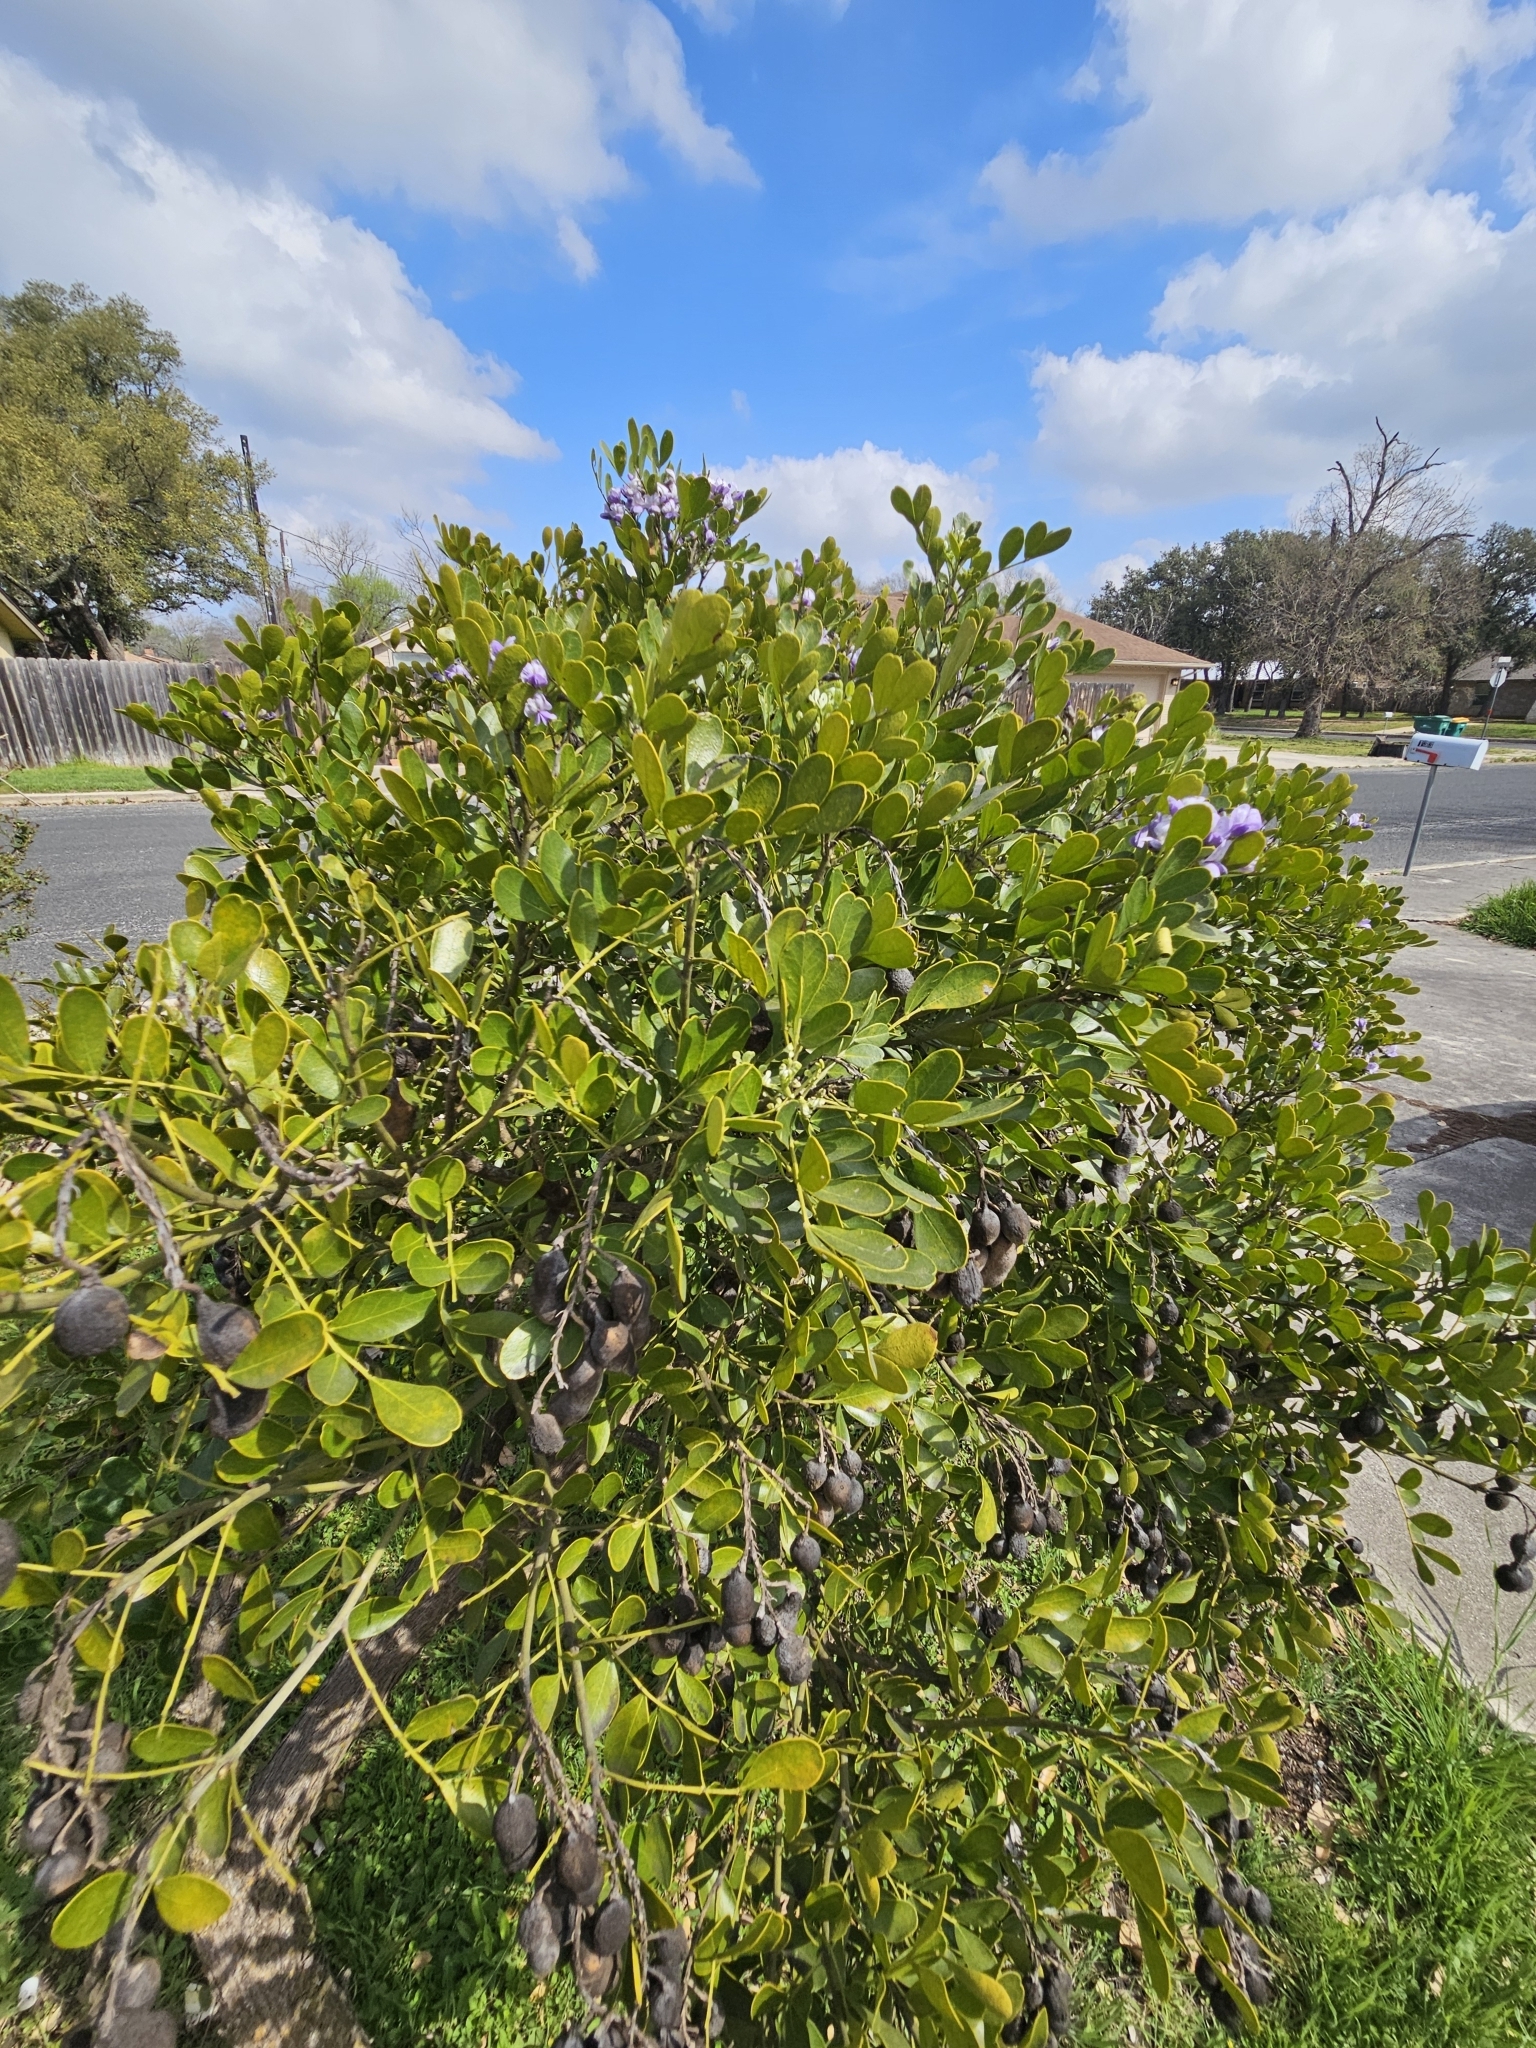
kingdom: Plantae
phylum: Tracheophyta
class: Magnoliopsida
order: Fabales
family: Fabaceae
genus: Dermatophyllum
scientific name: Dermatophyllum secundiflorum
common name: Texas-mountain-laurel
